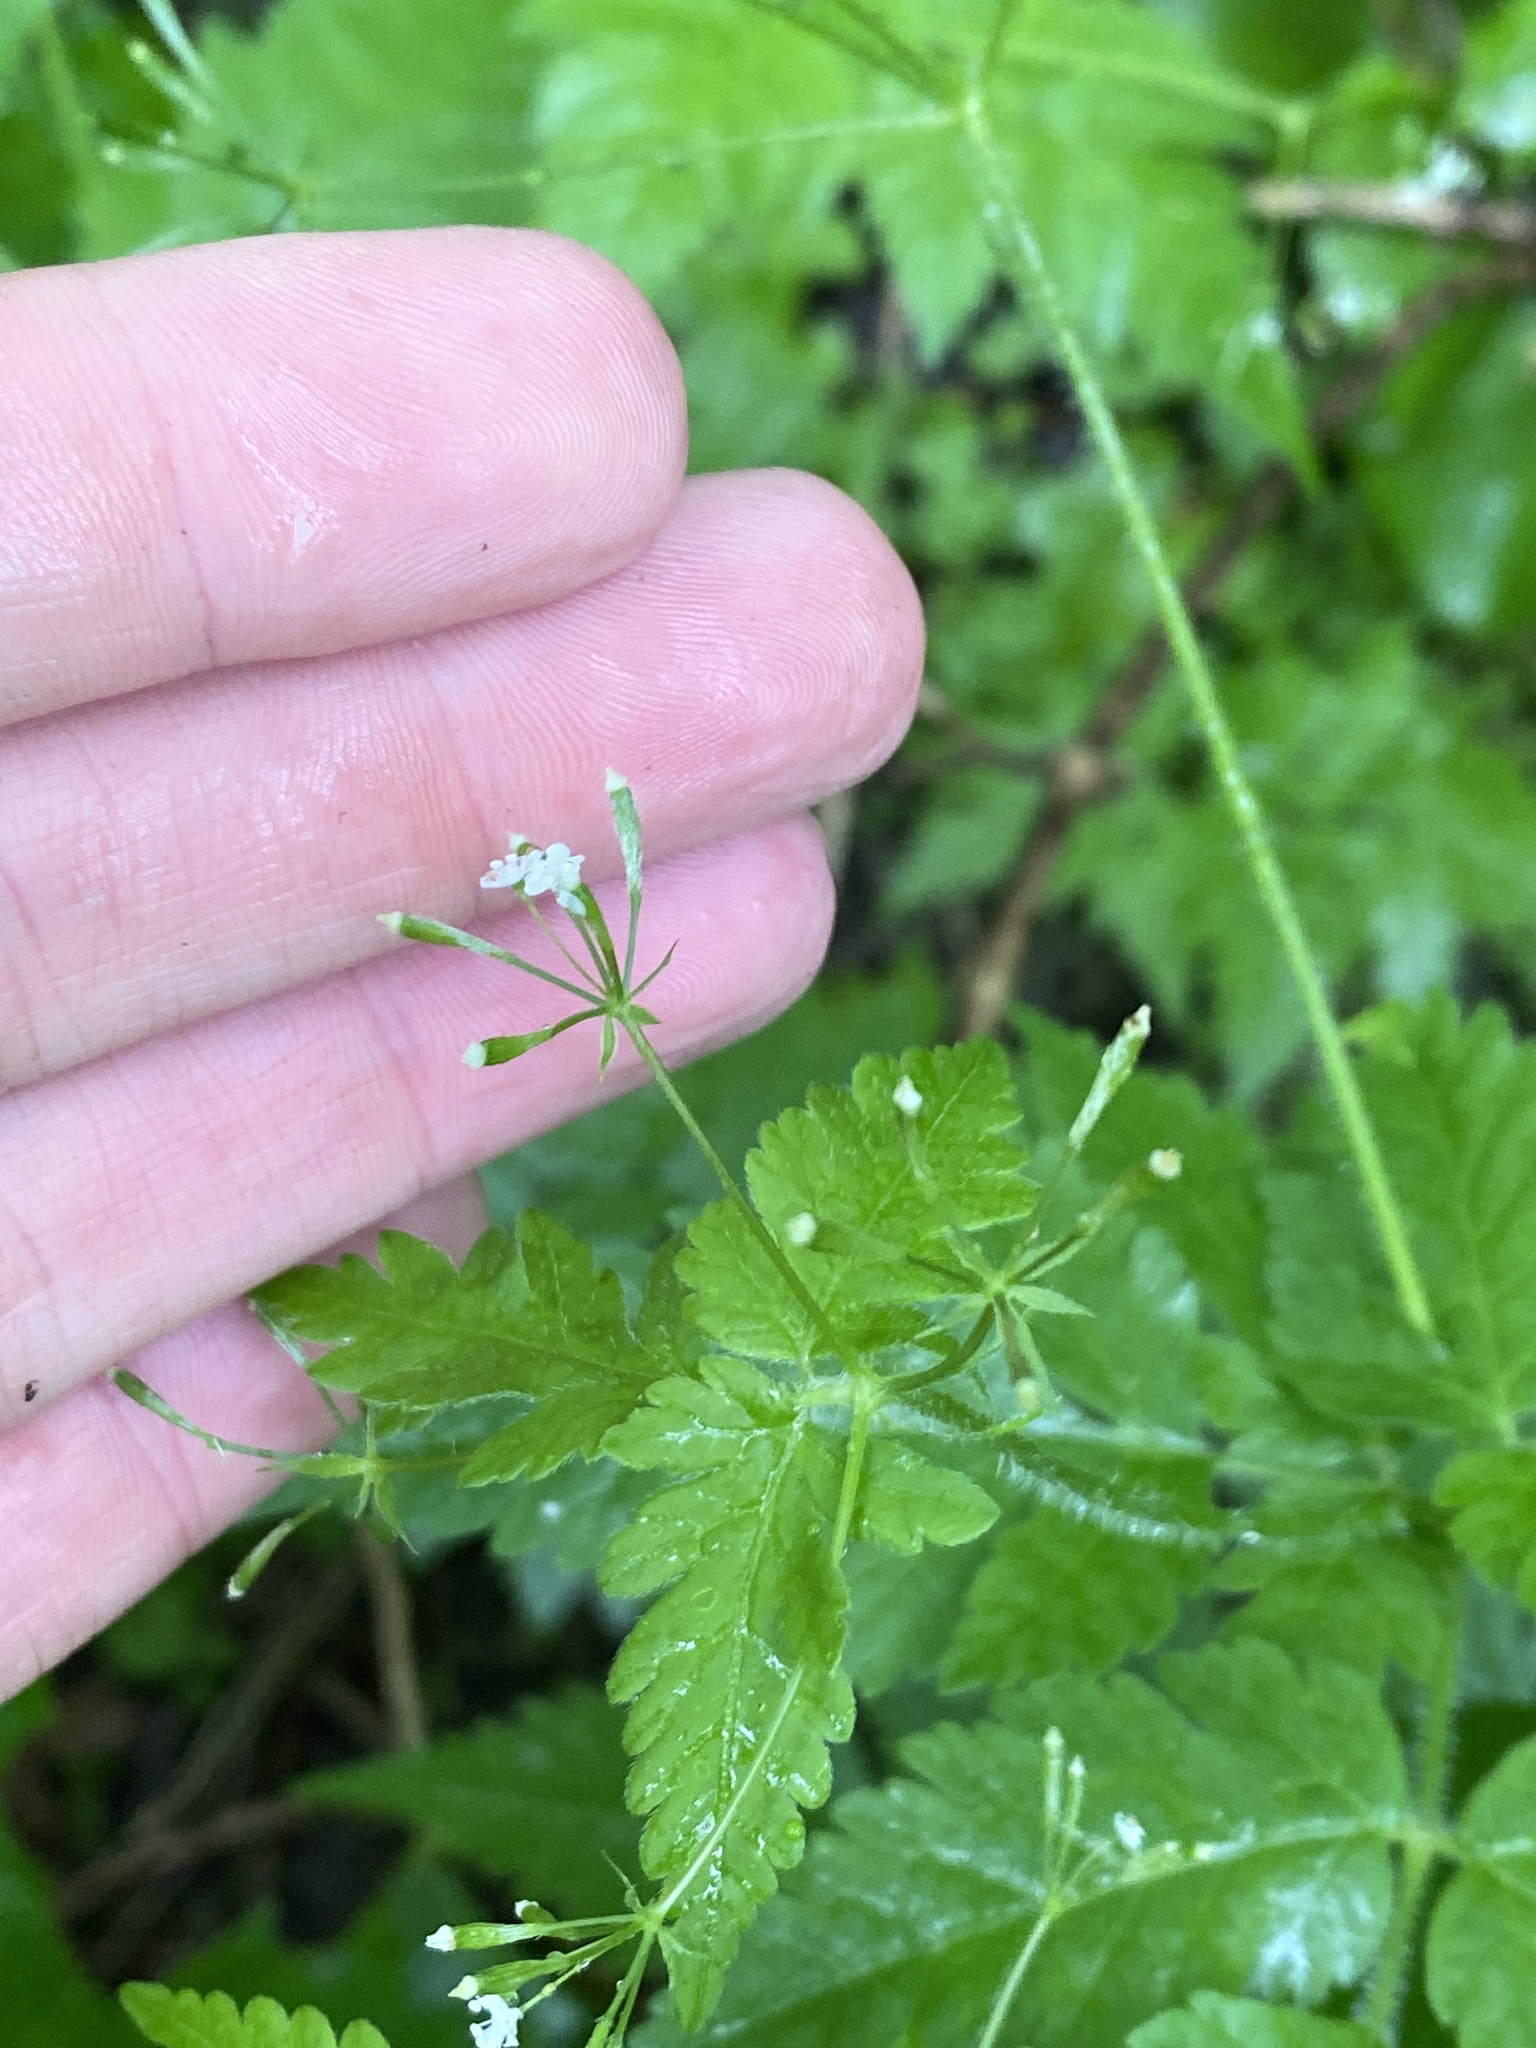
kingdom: Plantae
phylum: Tracheophyta
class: Magnoliopsida
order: Apiales
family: Apiaceae
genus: Osmorhiza
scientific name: Osmorhiza claytonii
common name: Hairy sweet cicely
